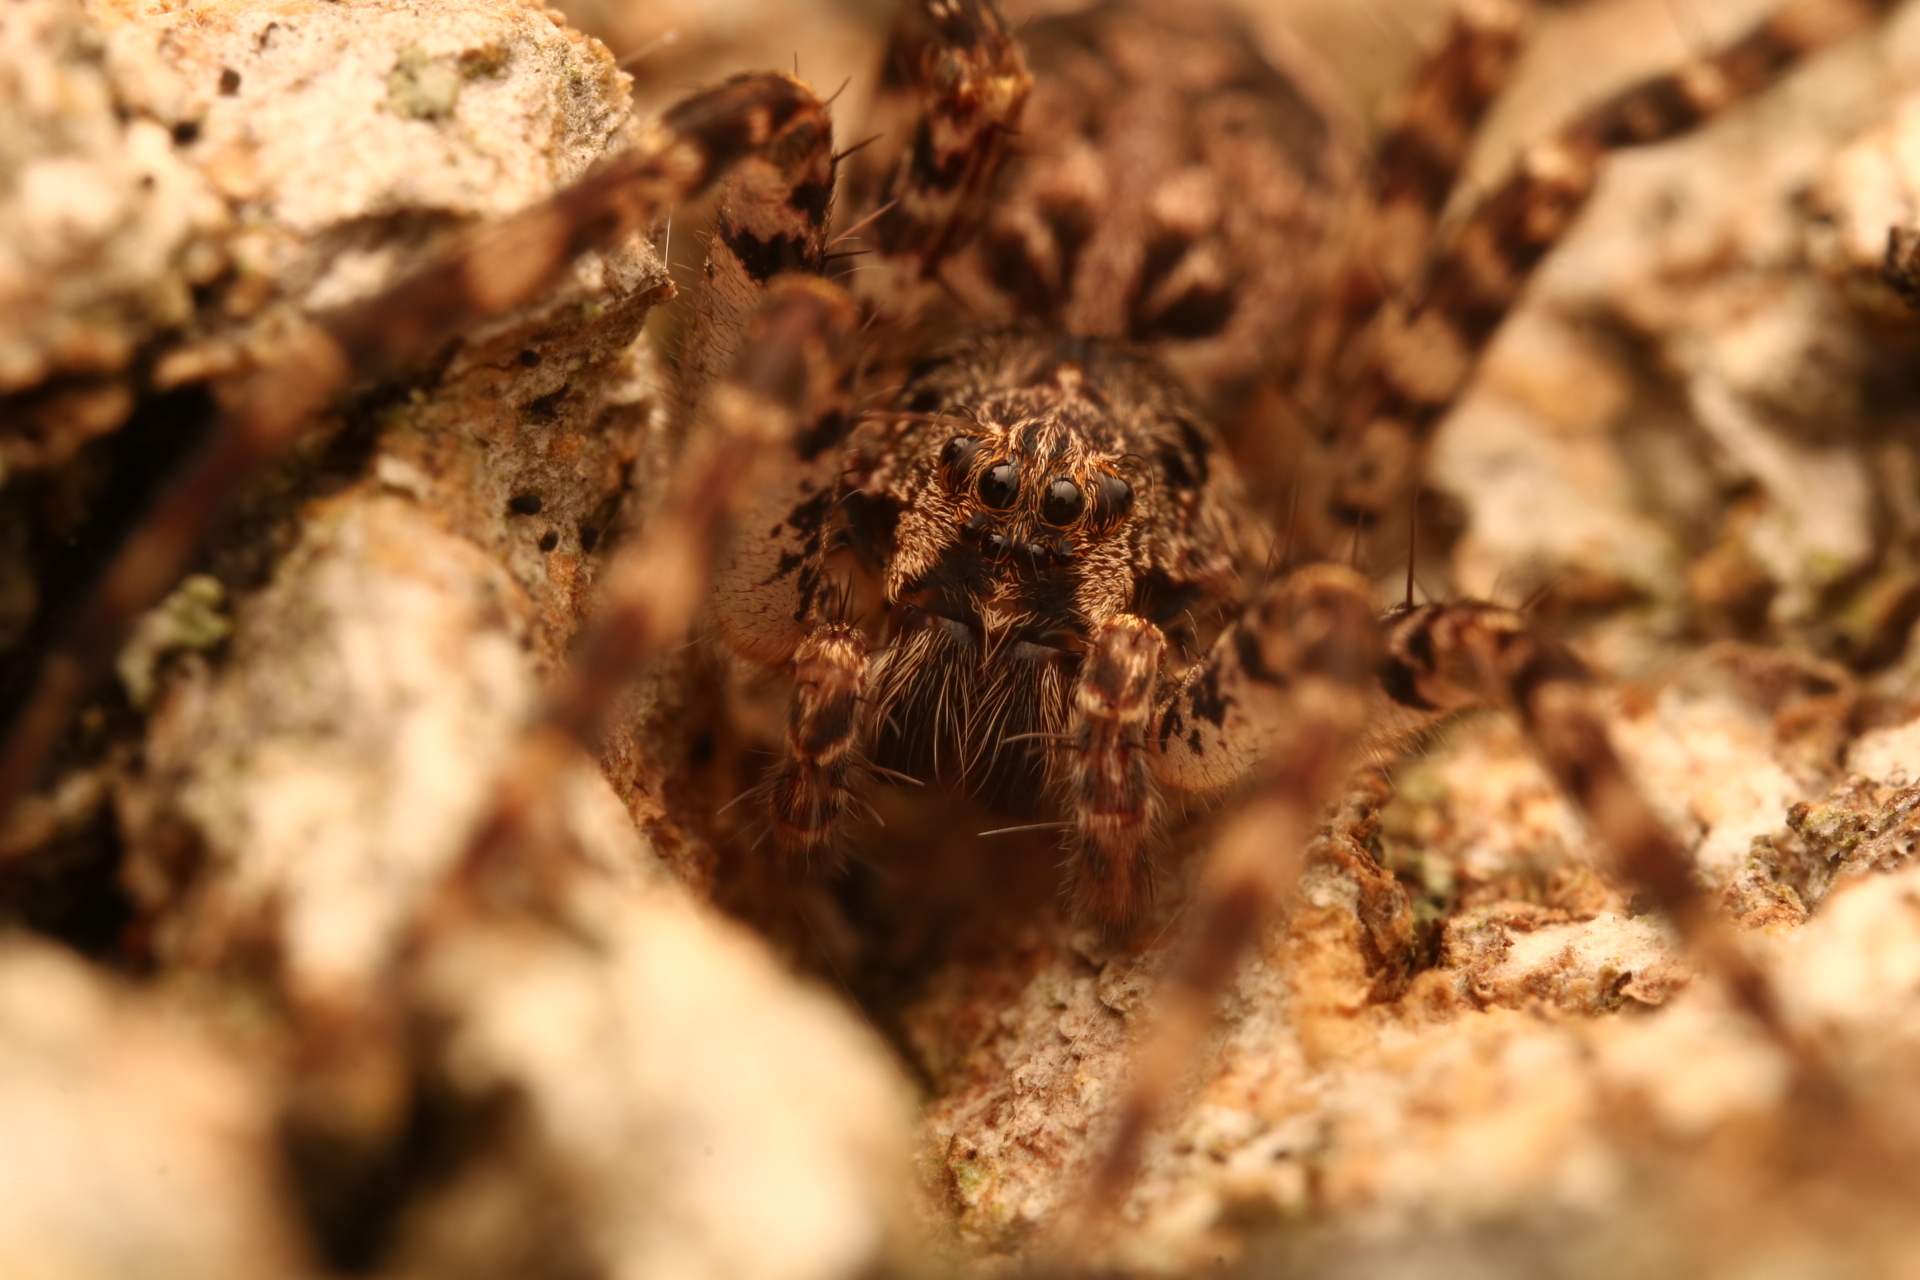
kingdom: Animalia
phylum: Arthropoda
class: Arachnida
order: Araneae
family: Pisauridae
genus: Dolomedes
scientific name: Dolomedes tenebrosus
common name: Dark fishing spider
